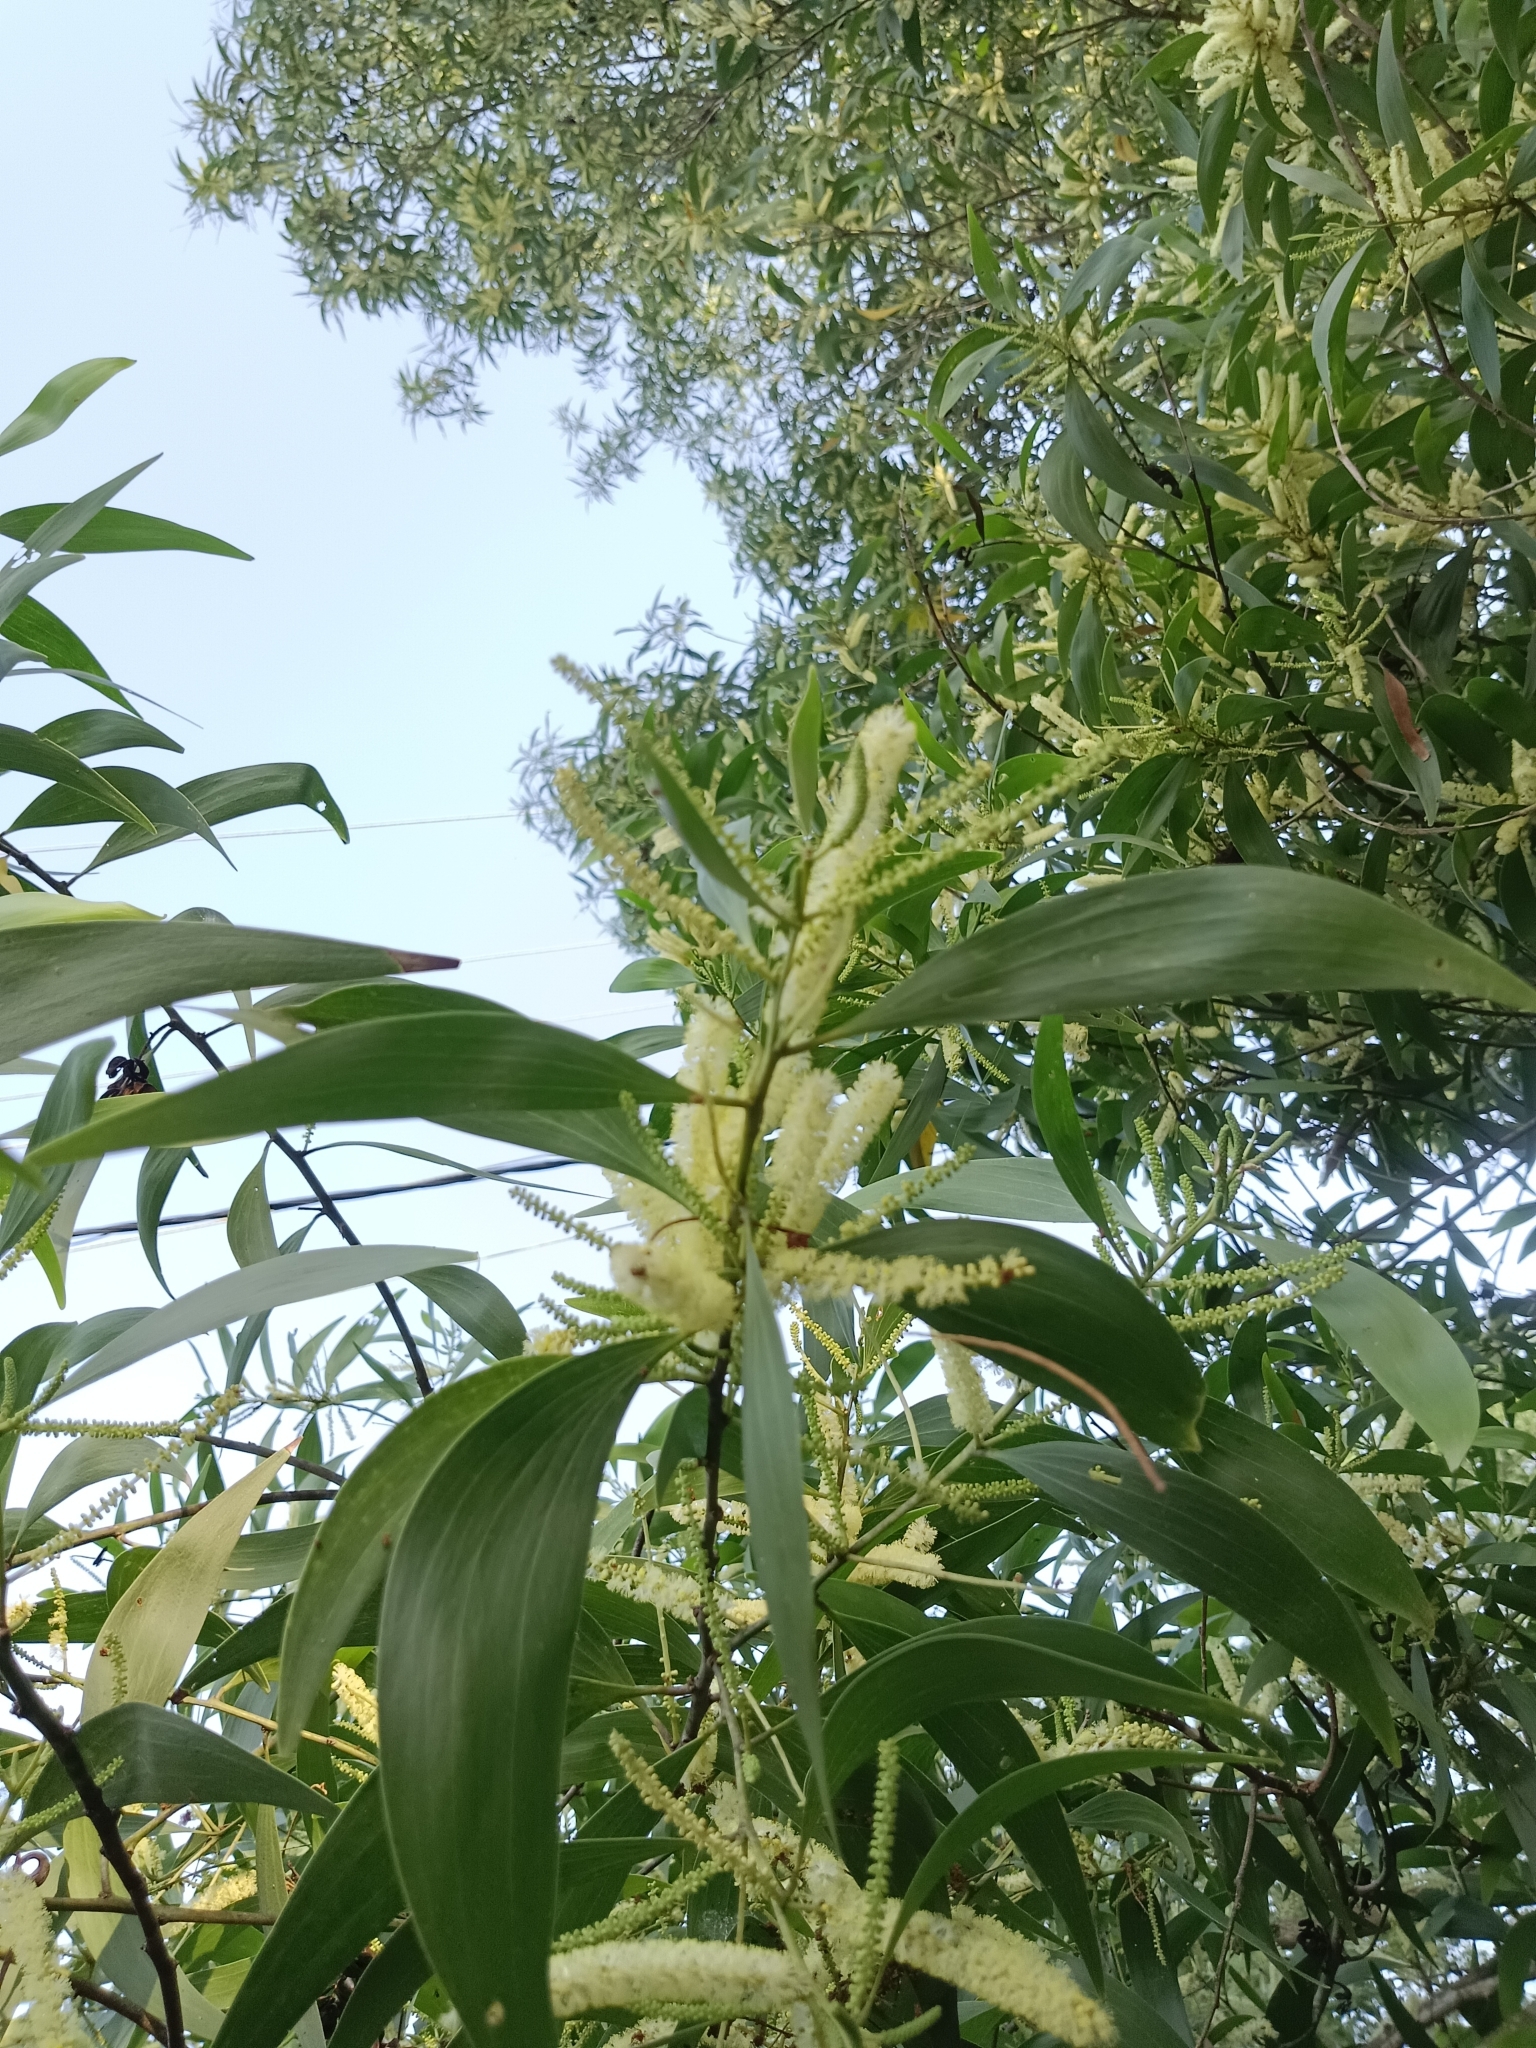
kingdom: Plantae
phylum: Tracheophyta
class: Magnoliopsida
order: Fabales
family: Fabaceae
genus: Acacia
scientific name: Acacia auriculiformis
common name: Earleaf acacia
